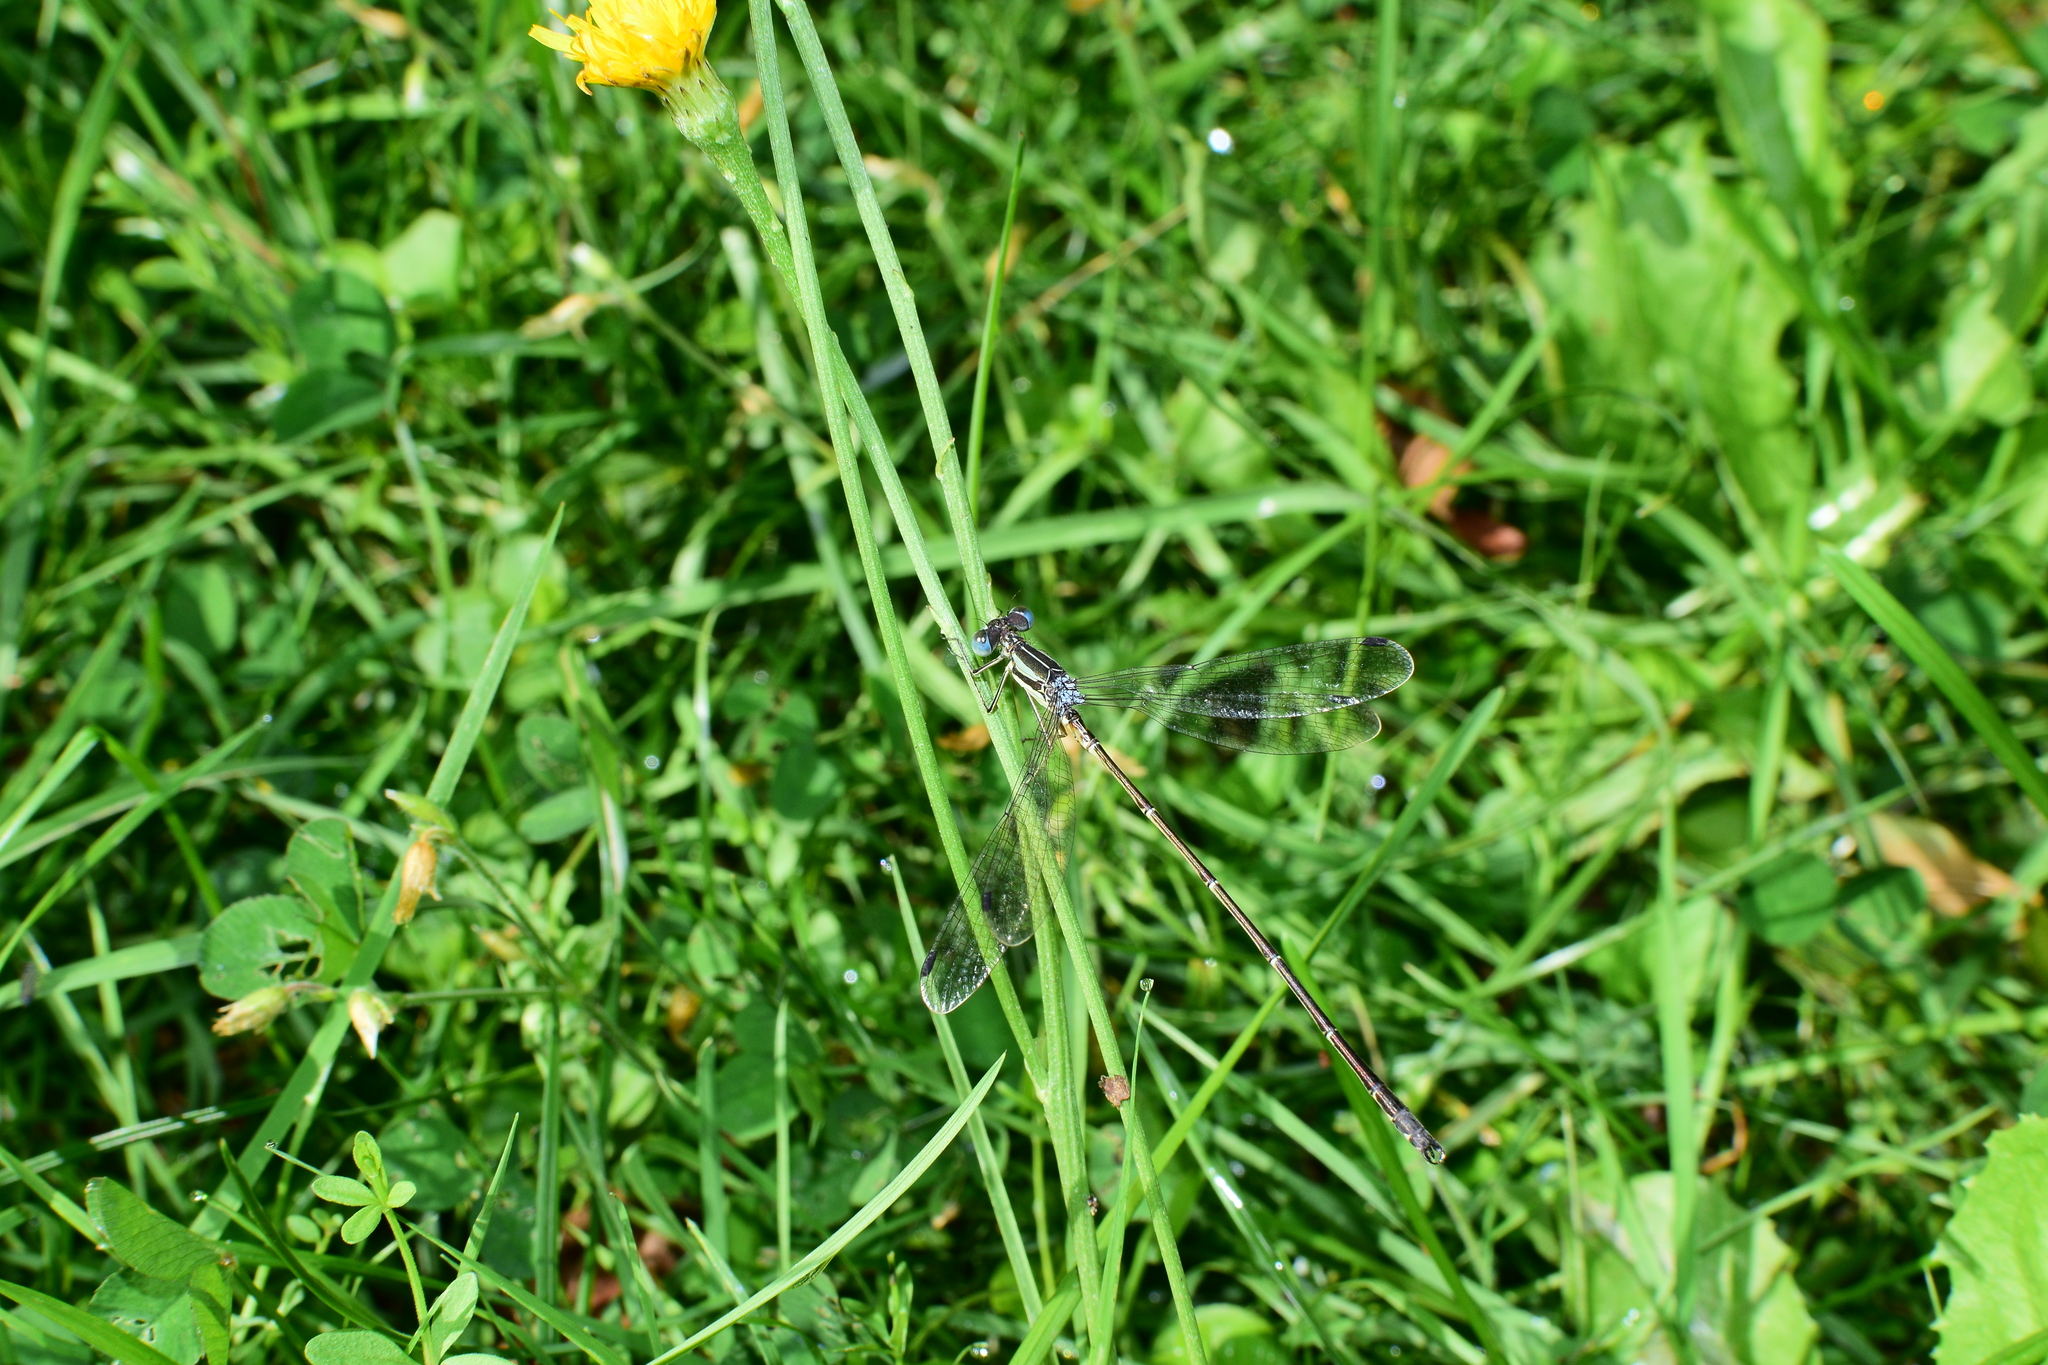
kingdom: Animalia
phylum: Arthropoda
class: Insecta
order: Odonata
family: Lestidae
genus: Lestes
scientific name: Lestes rectangularis
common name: Slender spreadwing
